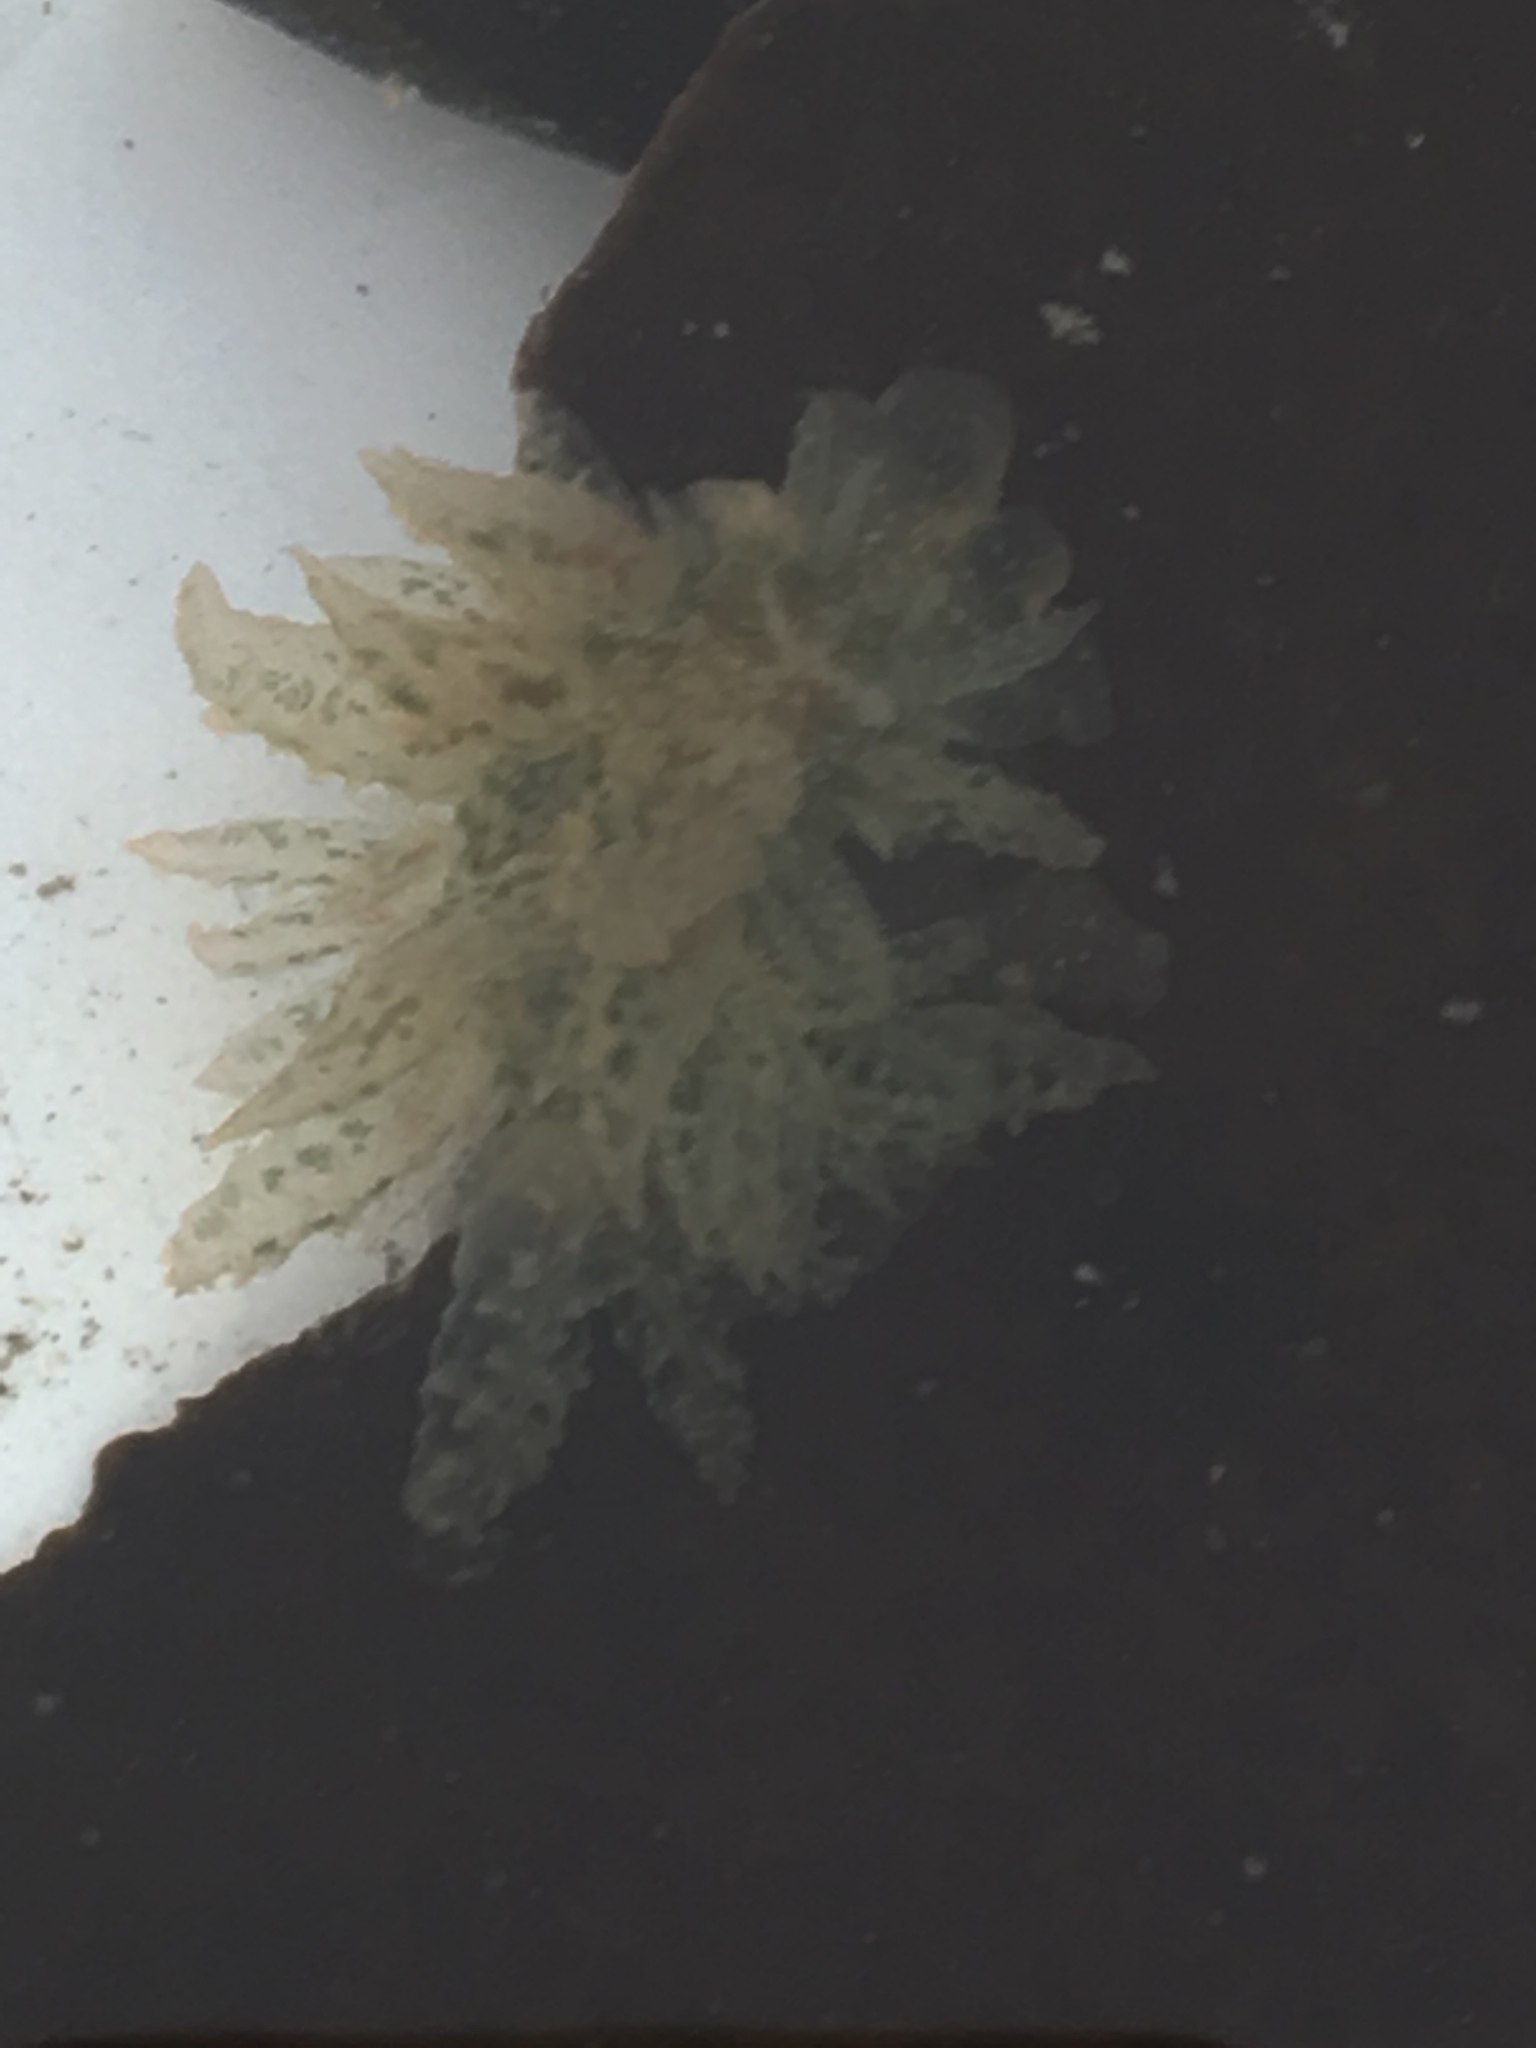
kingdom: Animalia
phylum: Mollusca
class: Gastropoda
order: Nudibranchia
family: Dironidae
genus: Dirona
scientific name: Dirona picta
